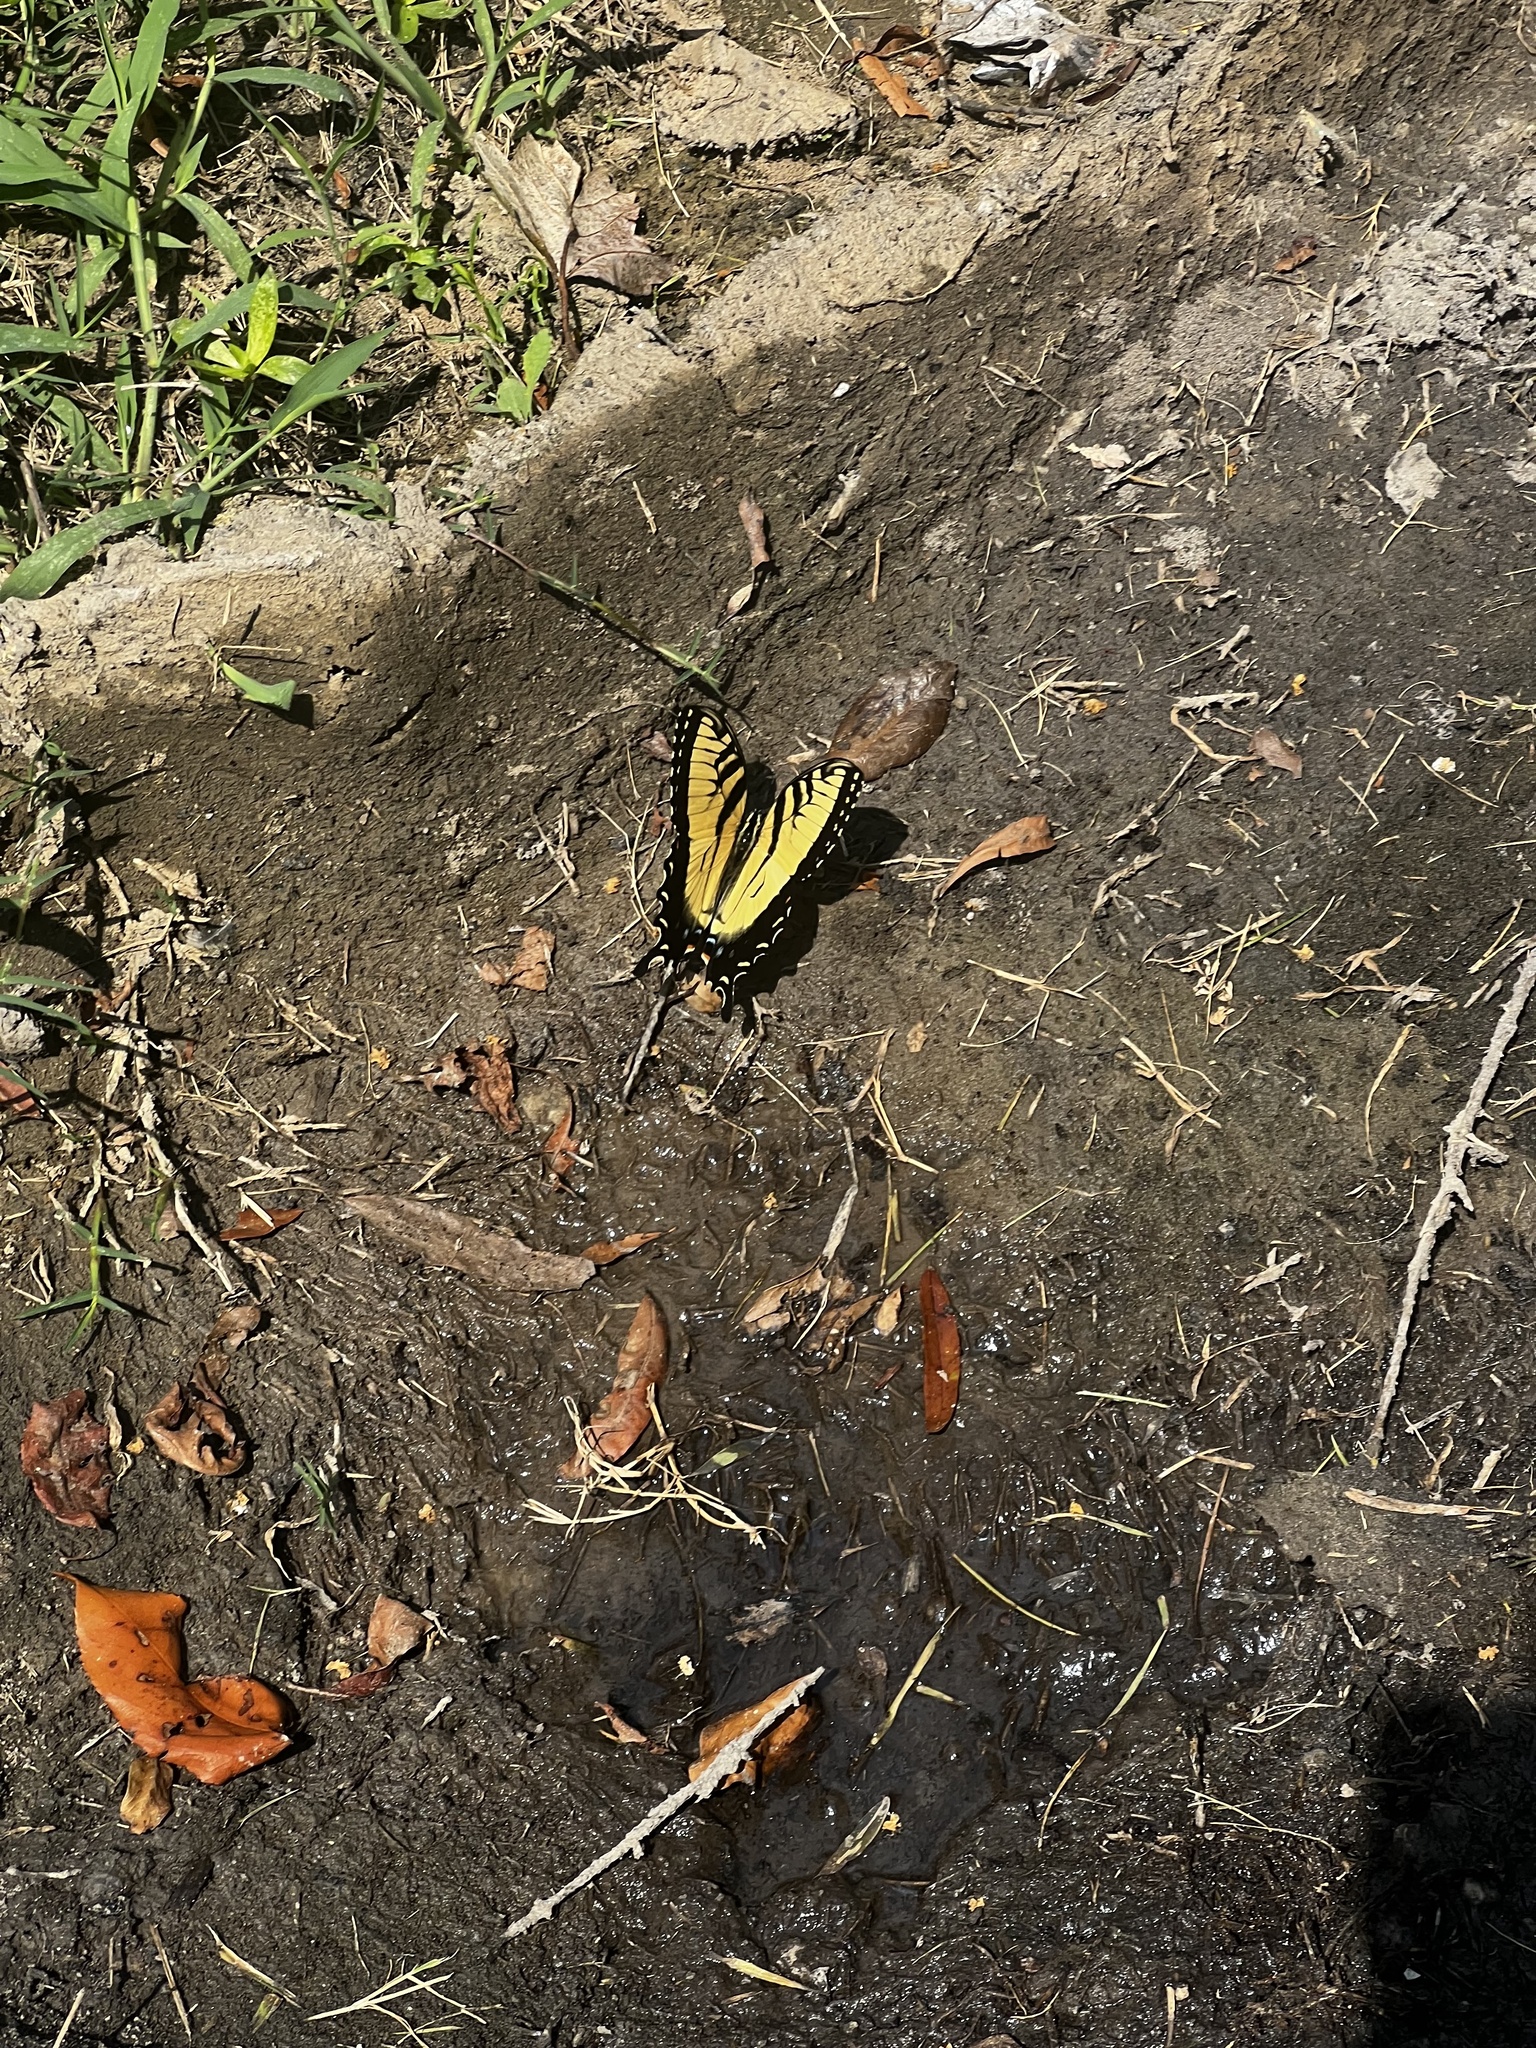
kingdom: Animalia
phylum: Arthropoda
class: Insecta
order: Lepidoptera
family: Papilionidae
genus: Papilio
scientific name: Papilio glaucus
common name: Tiger swallowtail
